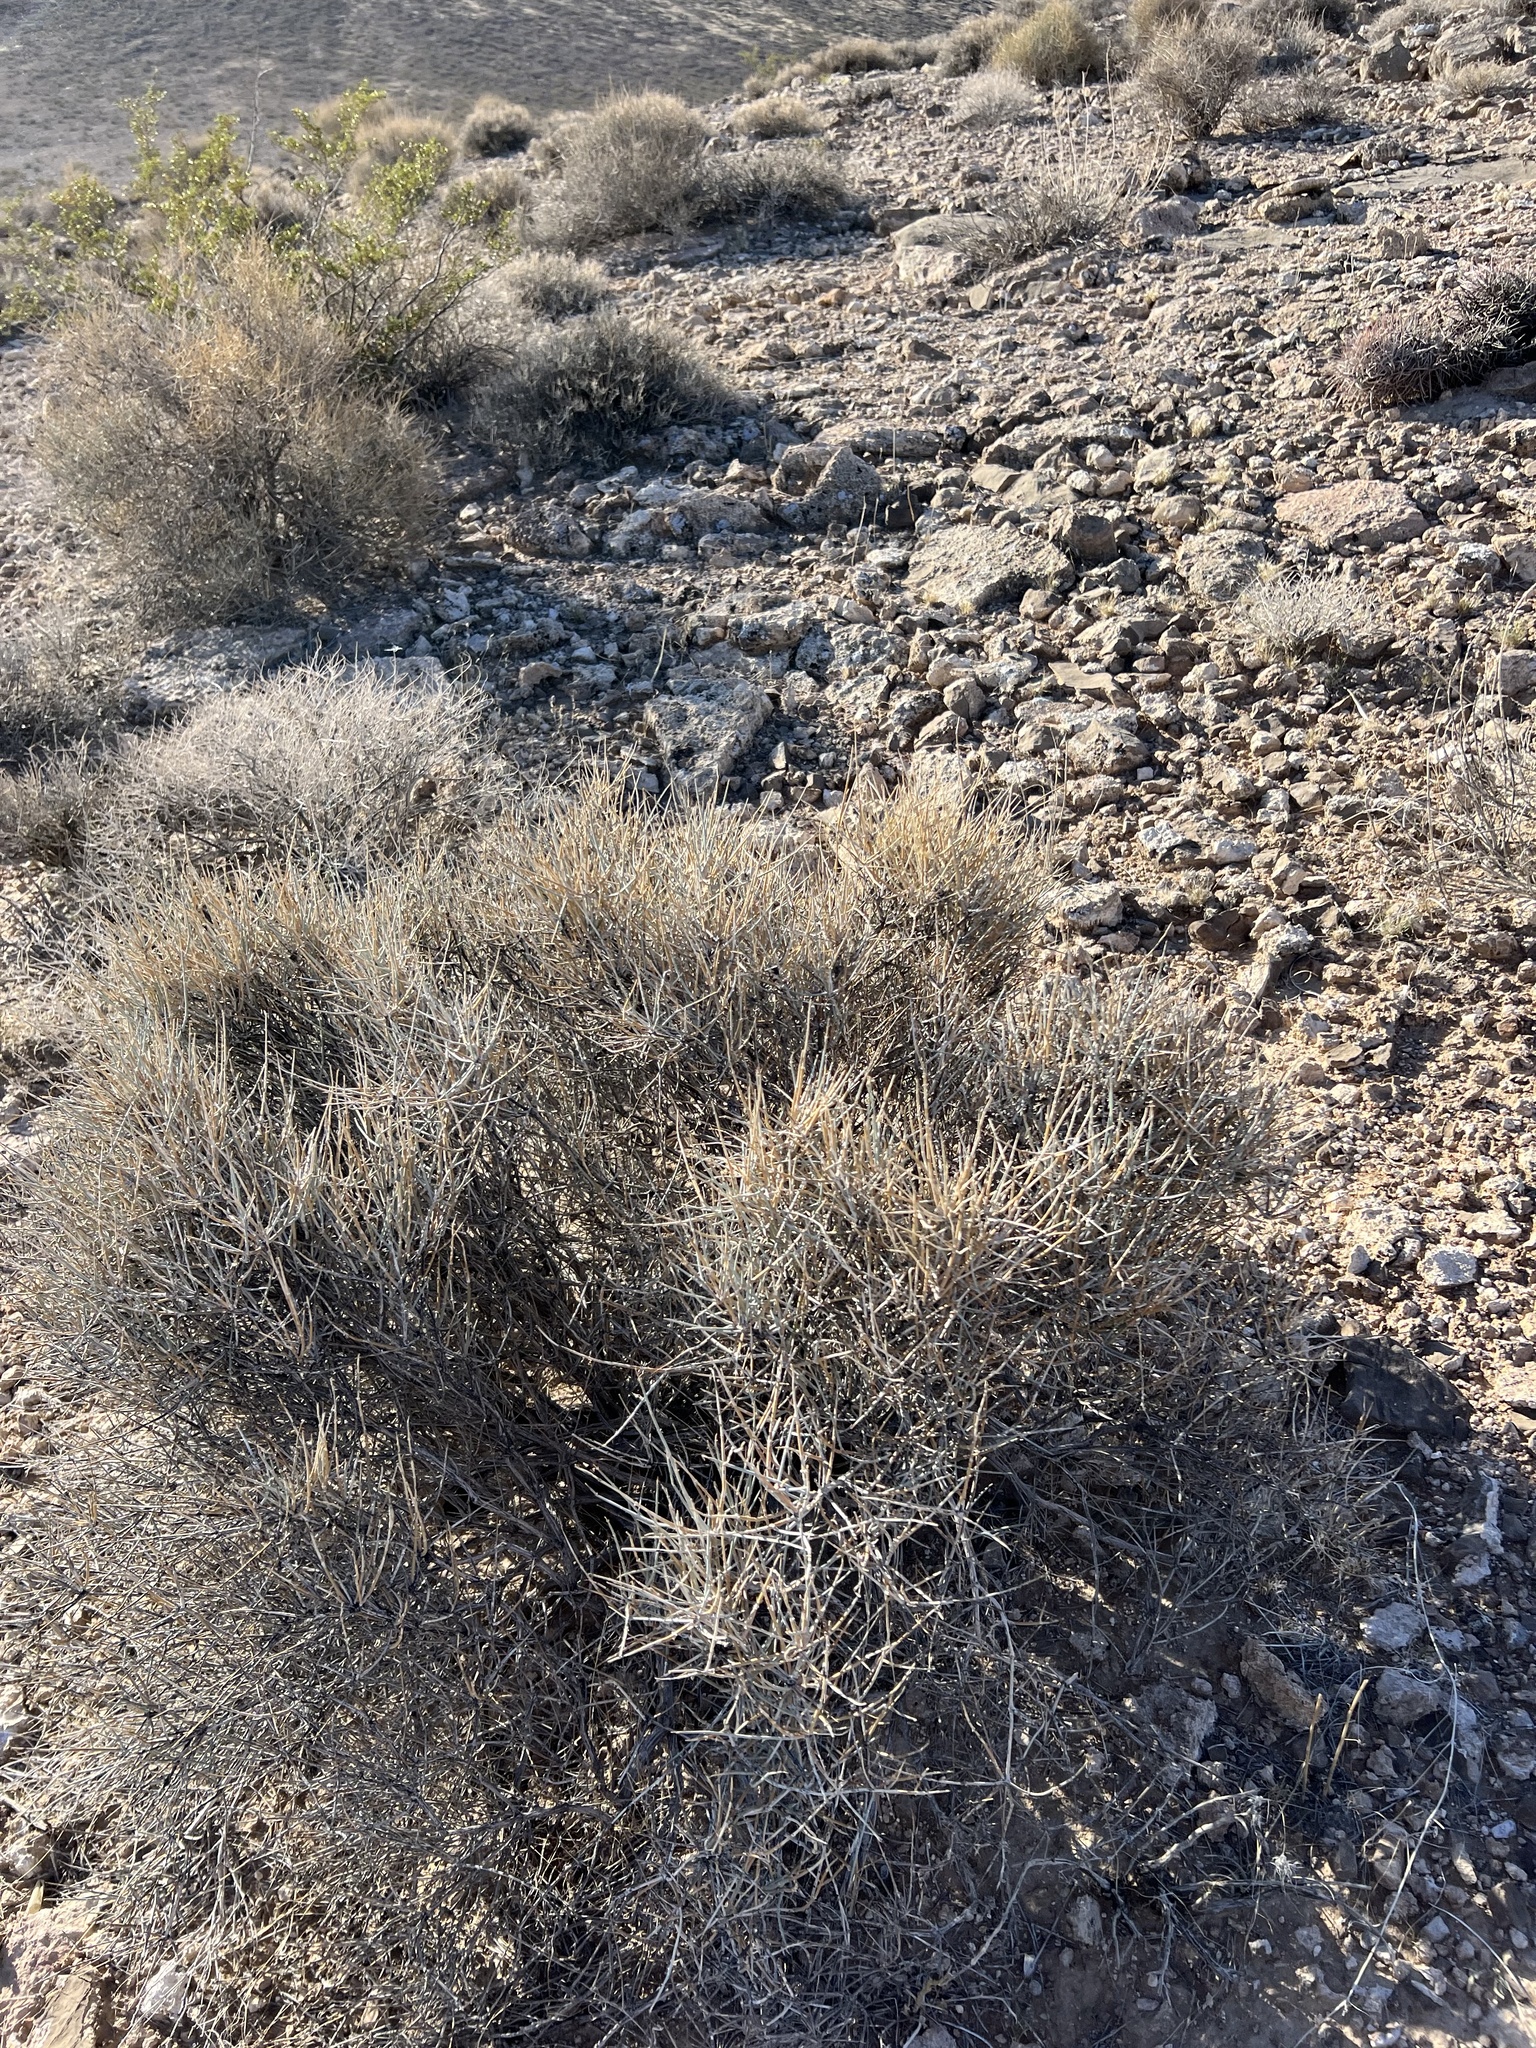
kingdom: Plantae
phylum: Tracheophyta
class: Gnetopsida
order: Ephedrales
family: Ephedraceae
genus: Ephedra
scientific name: Ephedra nevadensis
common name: Gray ephedra
